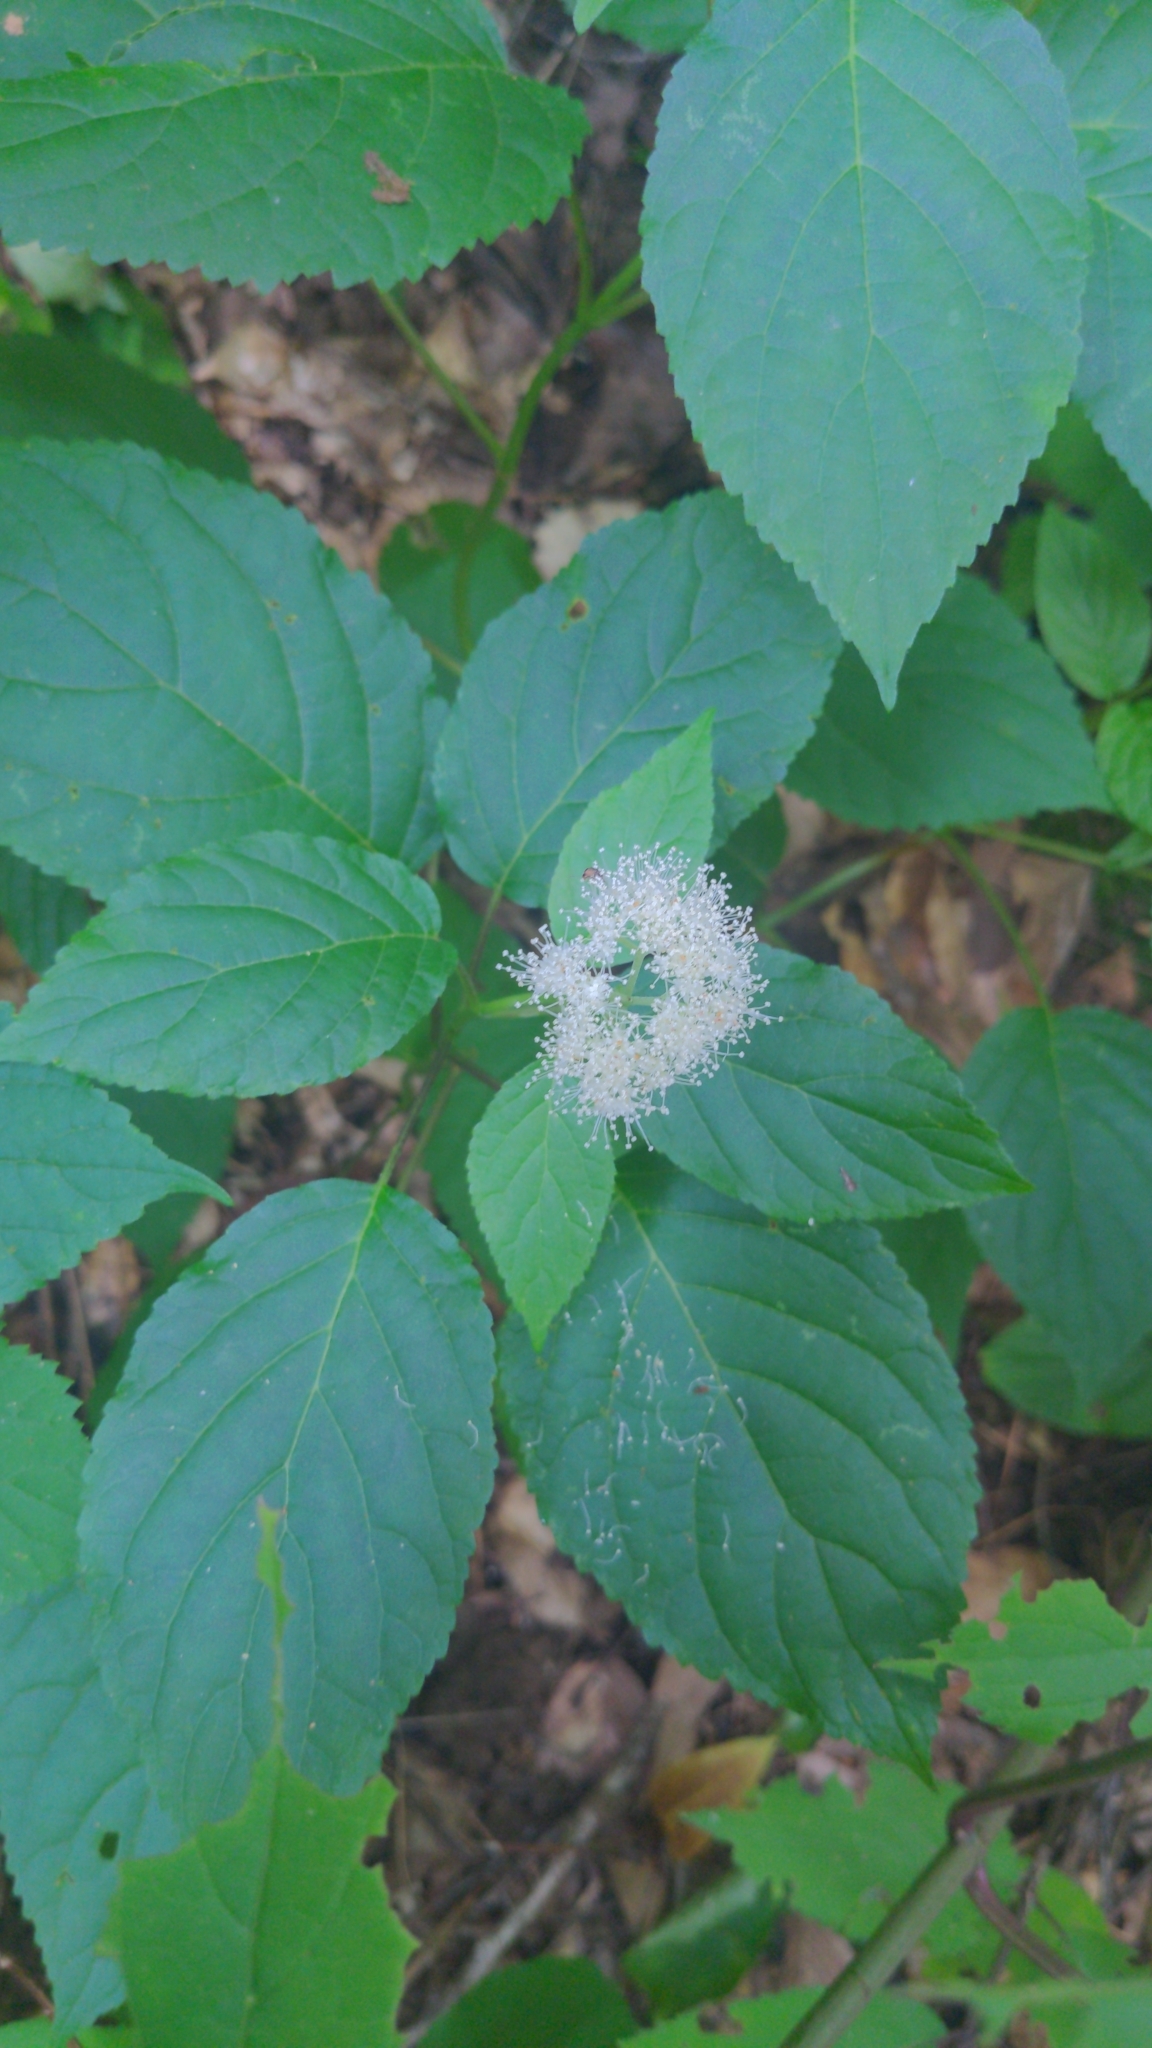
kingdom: Plantae
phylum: Tracheophyta
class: Magnoliopsida
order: Cornales
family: Hydrangeaceae
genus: Hydrangea
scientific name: Hydrangea arborescens
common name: Sevenbark
